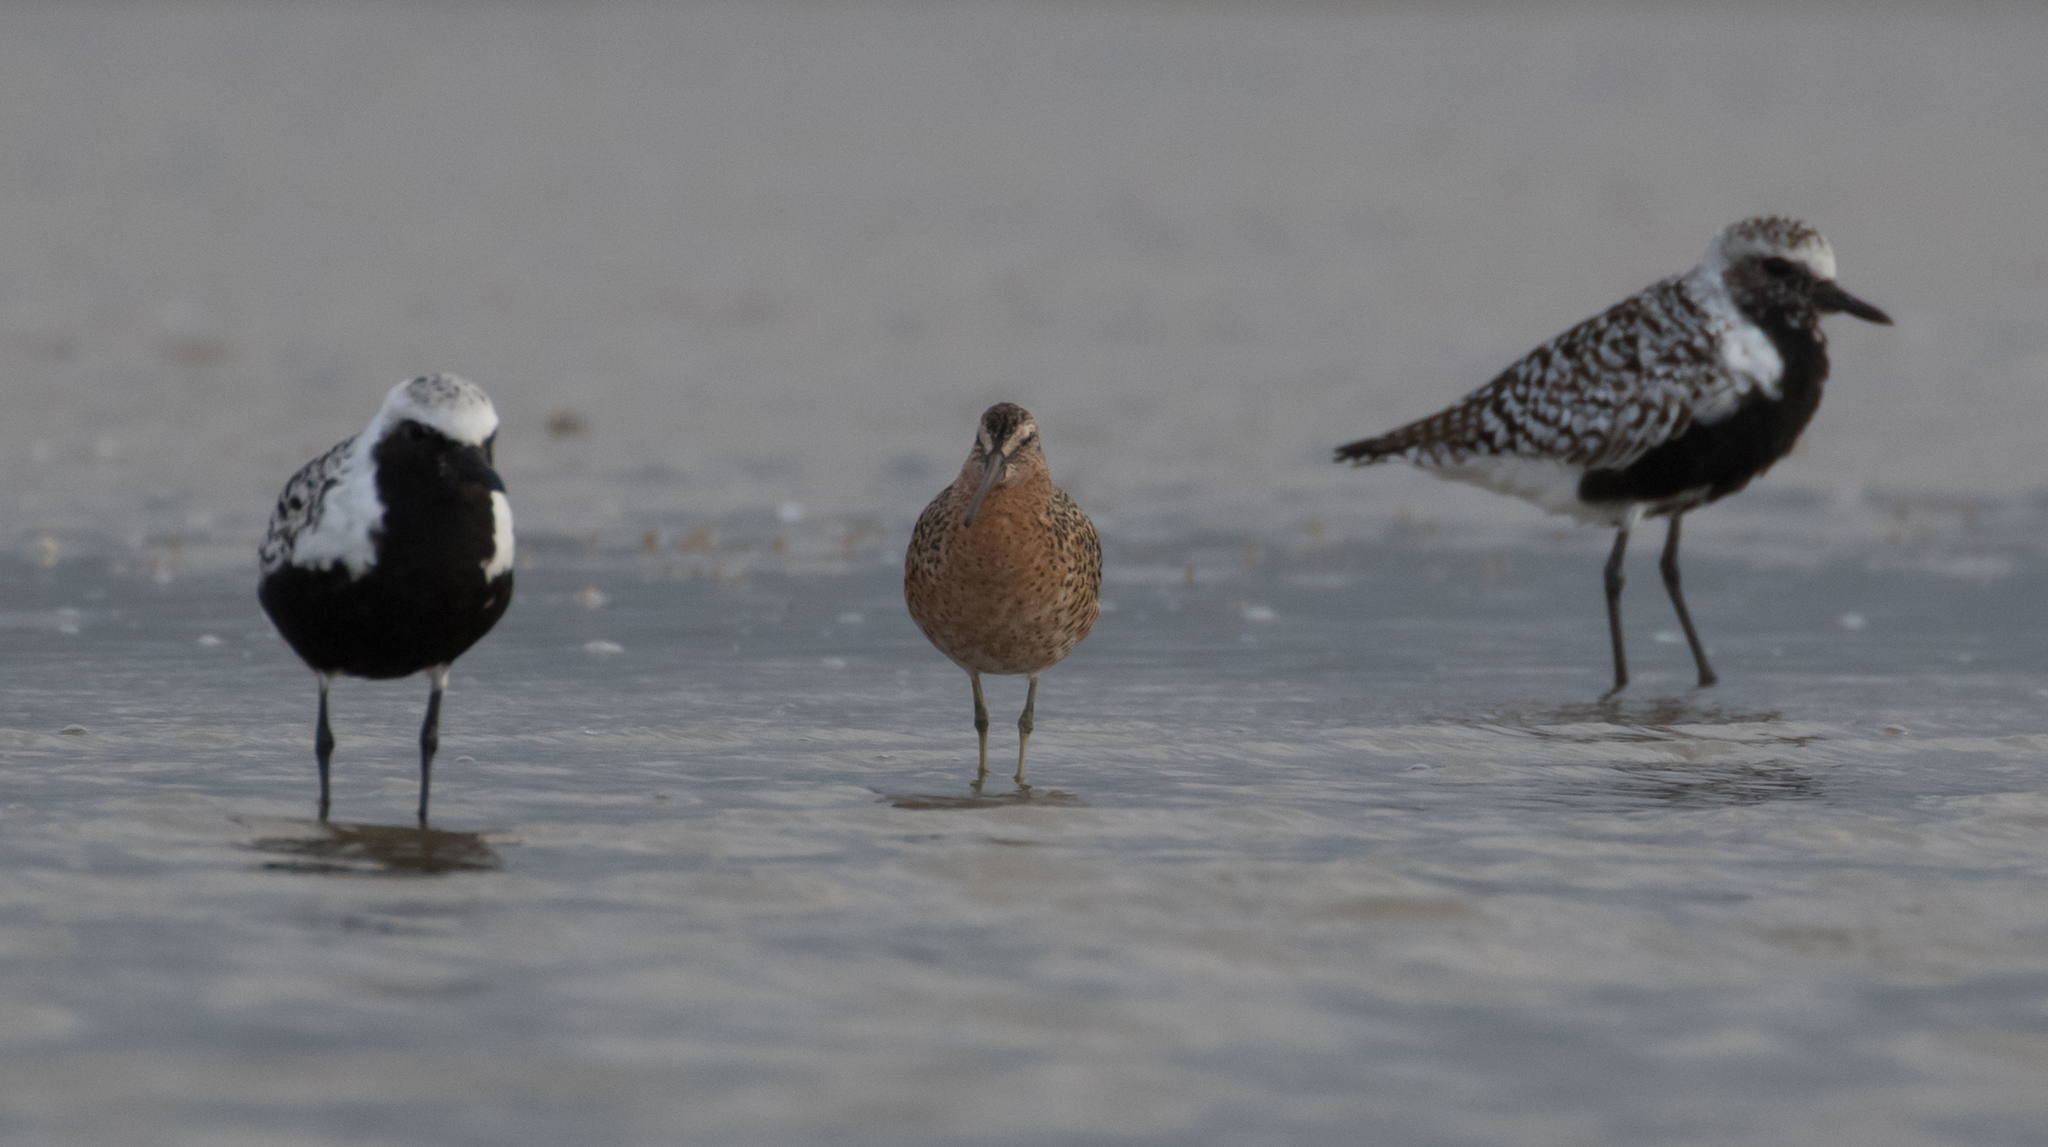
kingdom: Animalia
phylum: Chordata
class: Aves
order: Charadriiformes
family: Scolopacidae
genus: Limnodromus
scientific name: Limnodromus griseus
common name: Short-billed dowitcher
